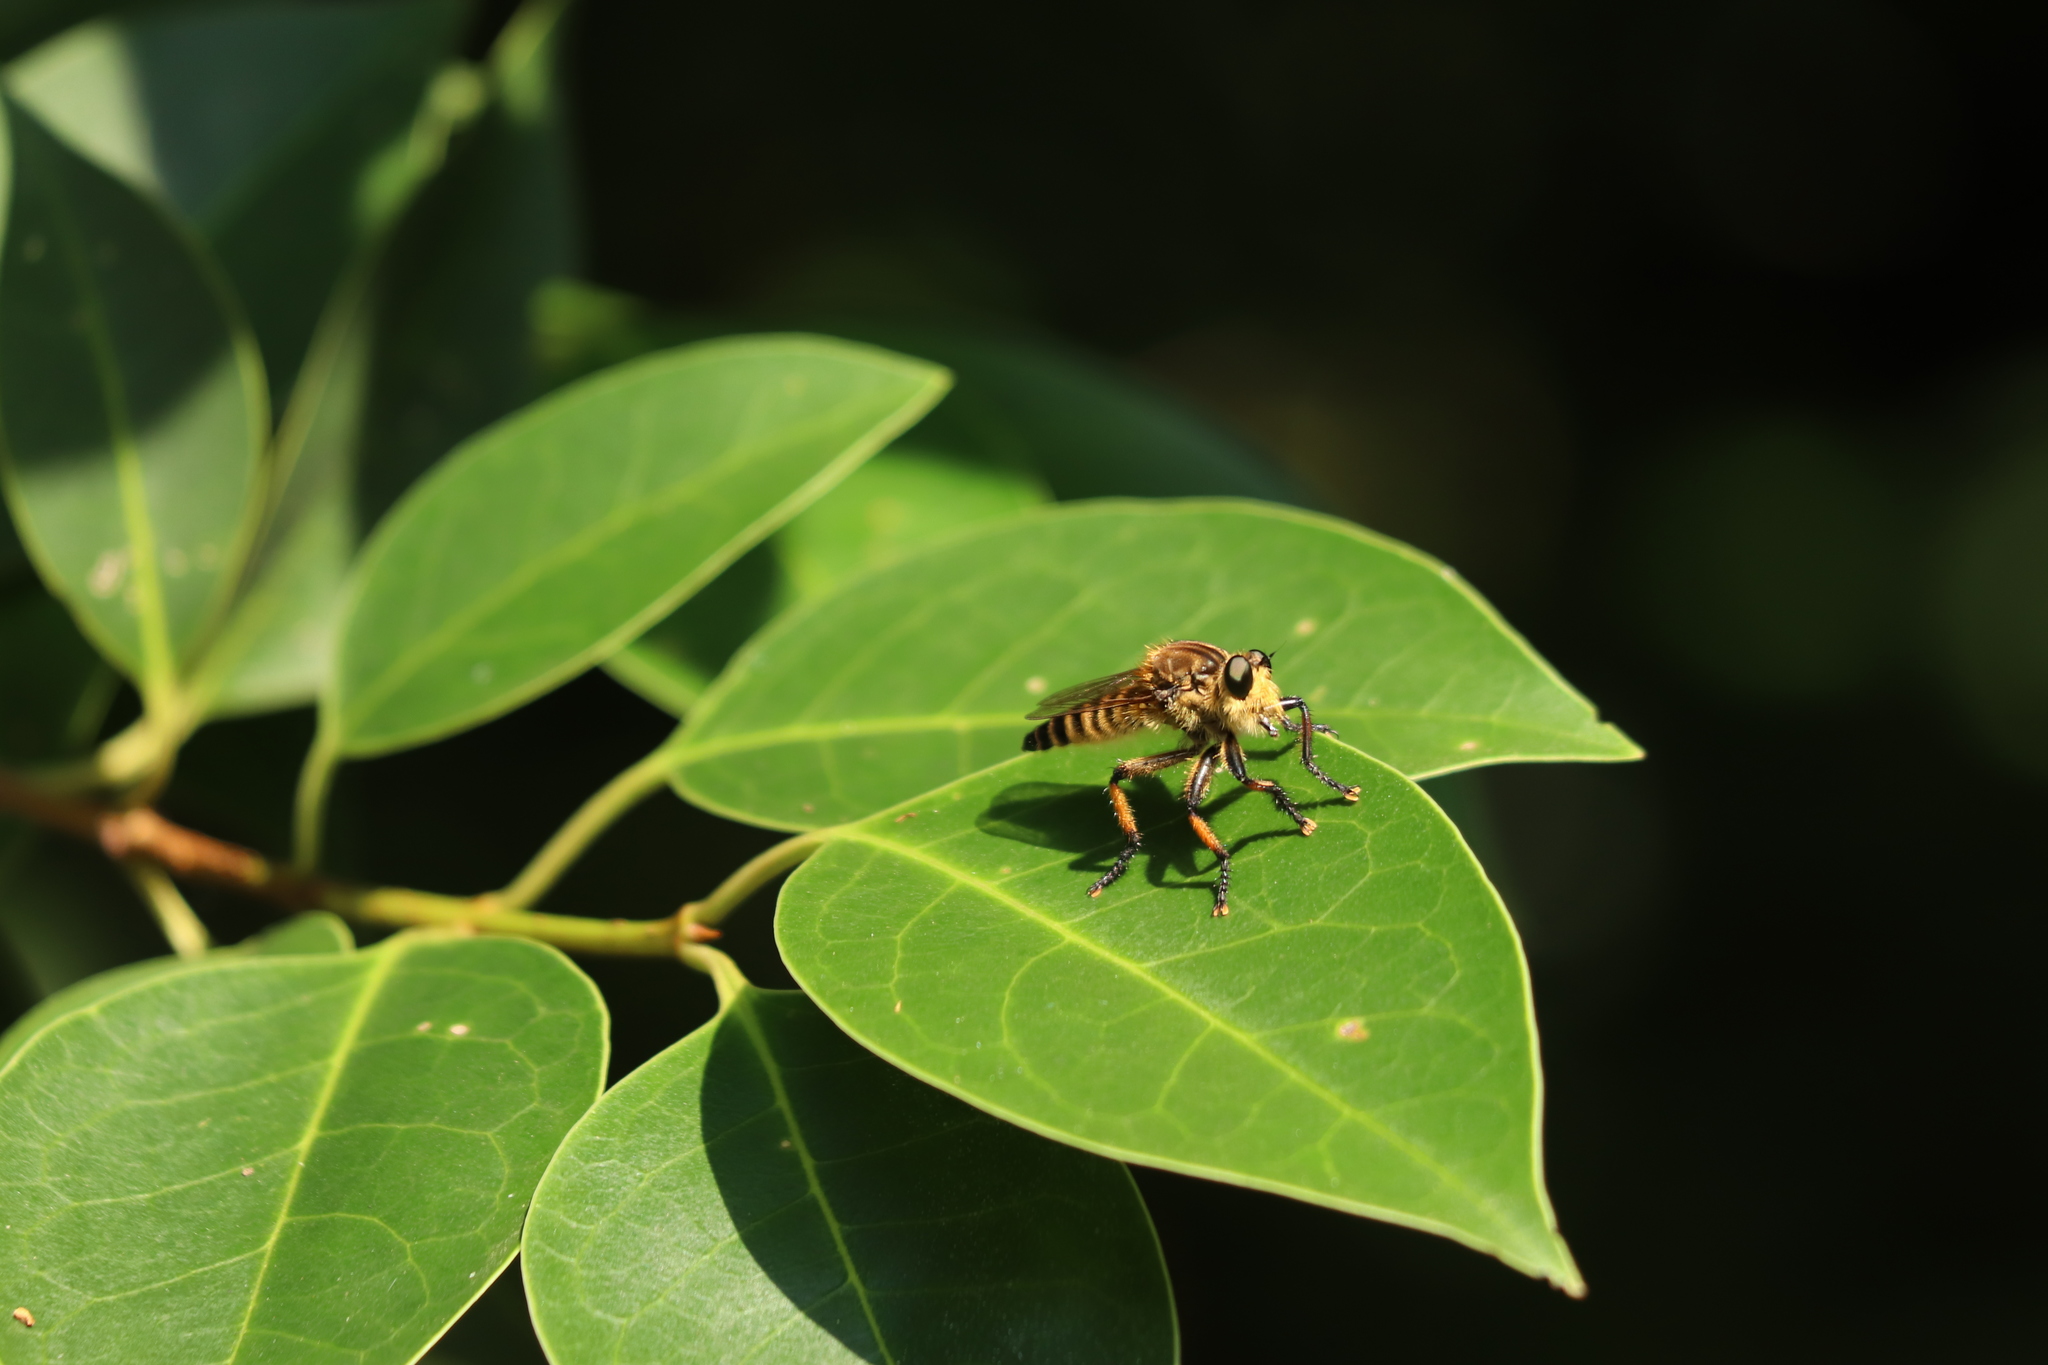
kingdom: Animalia
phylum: Arthropoda
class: Insecta
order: Diptera
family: Asilidae
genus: Promachus
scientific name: Promachus yesonicus
